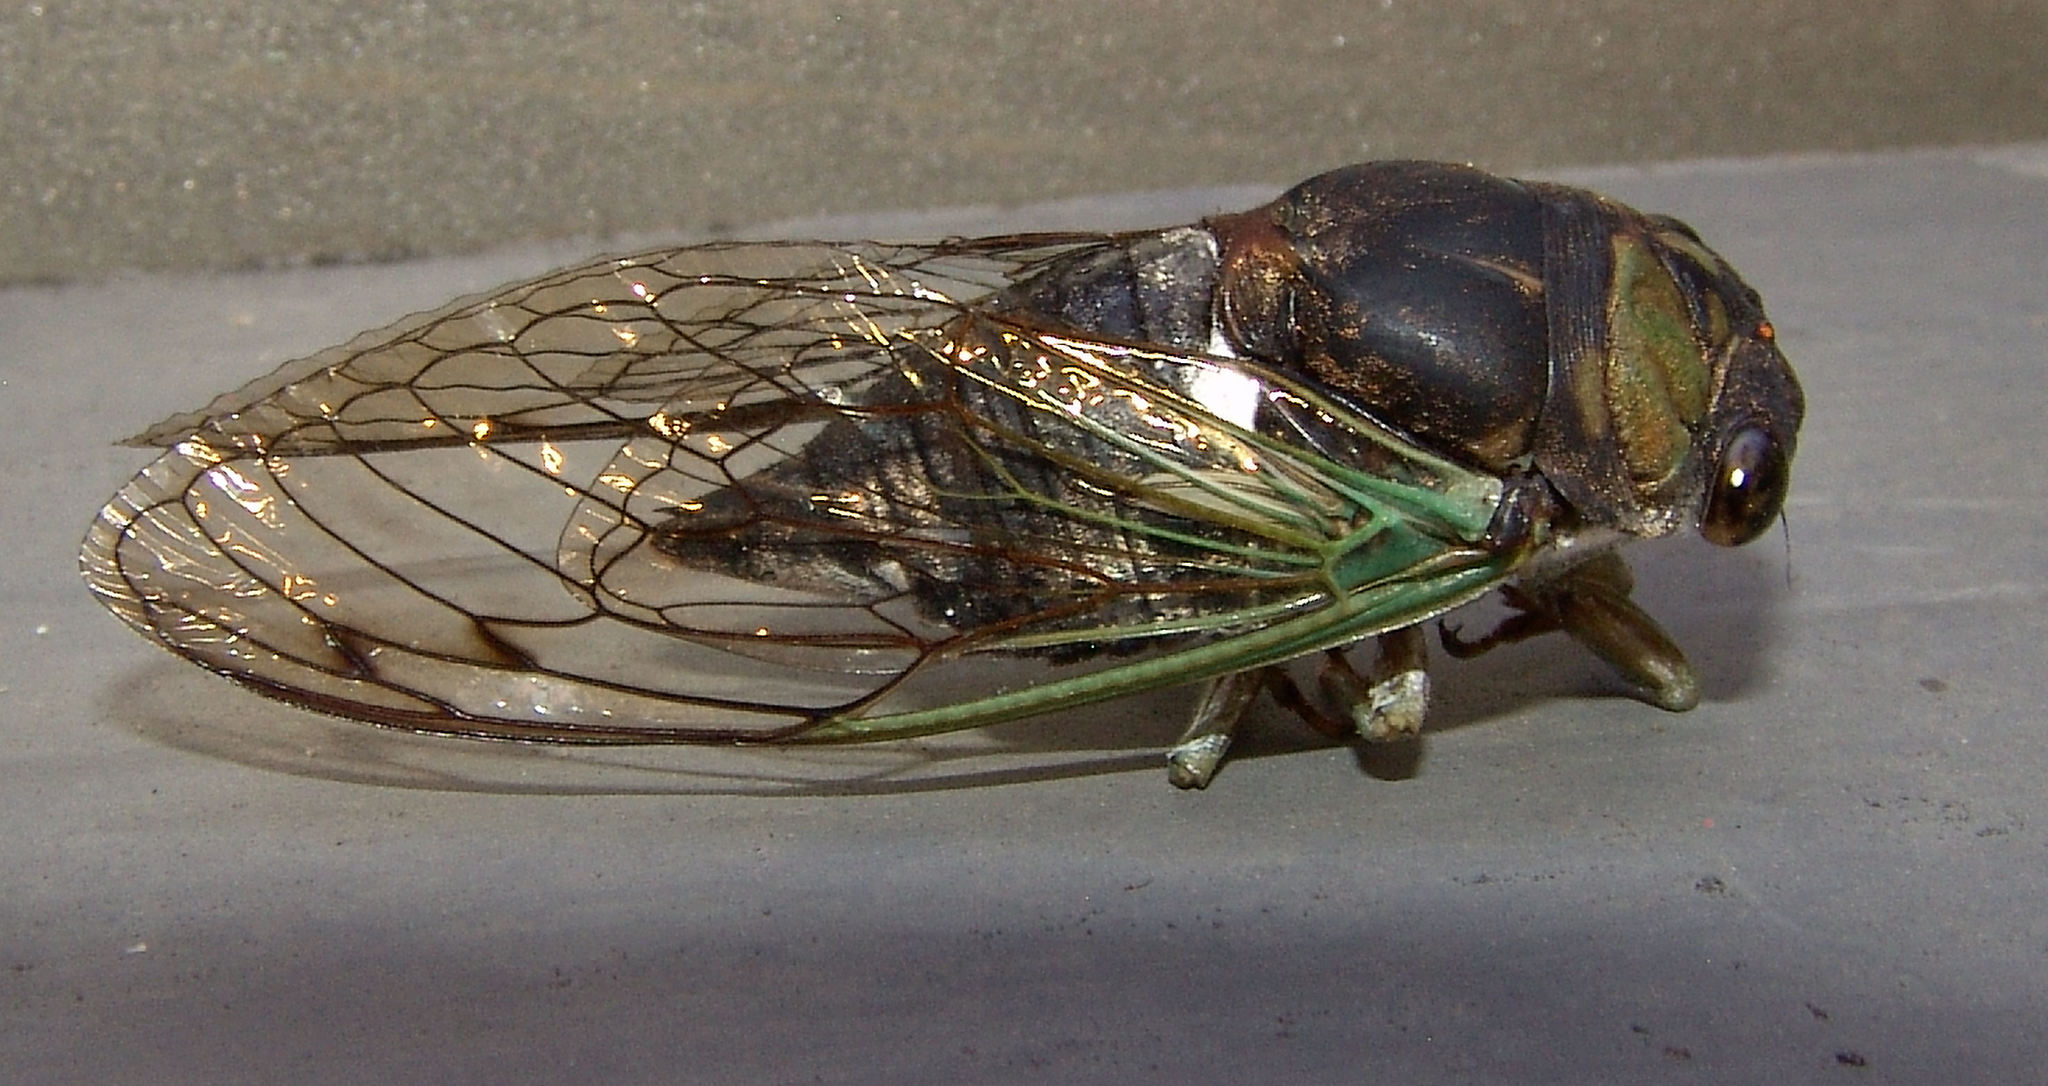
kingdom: Animalia
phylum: Arthropoda
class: Insecta
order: Hemiptera
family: Cicadidae
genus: Neotibicen
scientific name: Neotibicen tibicen
